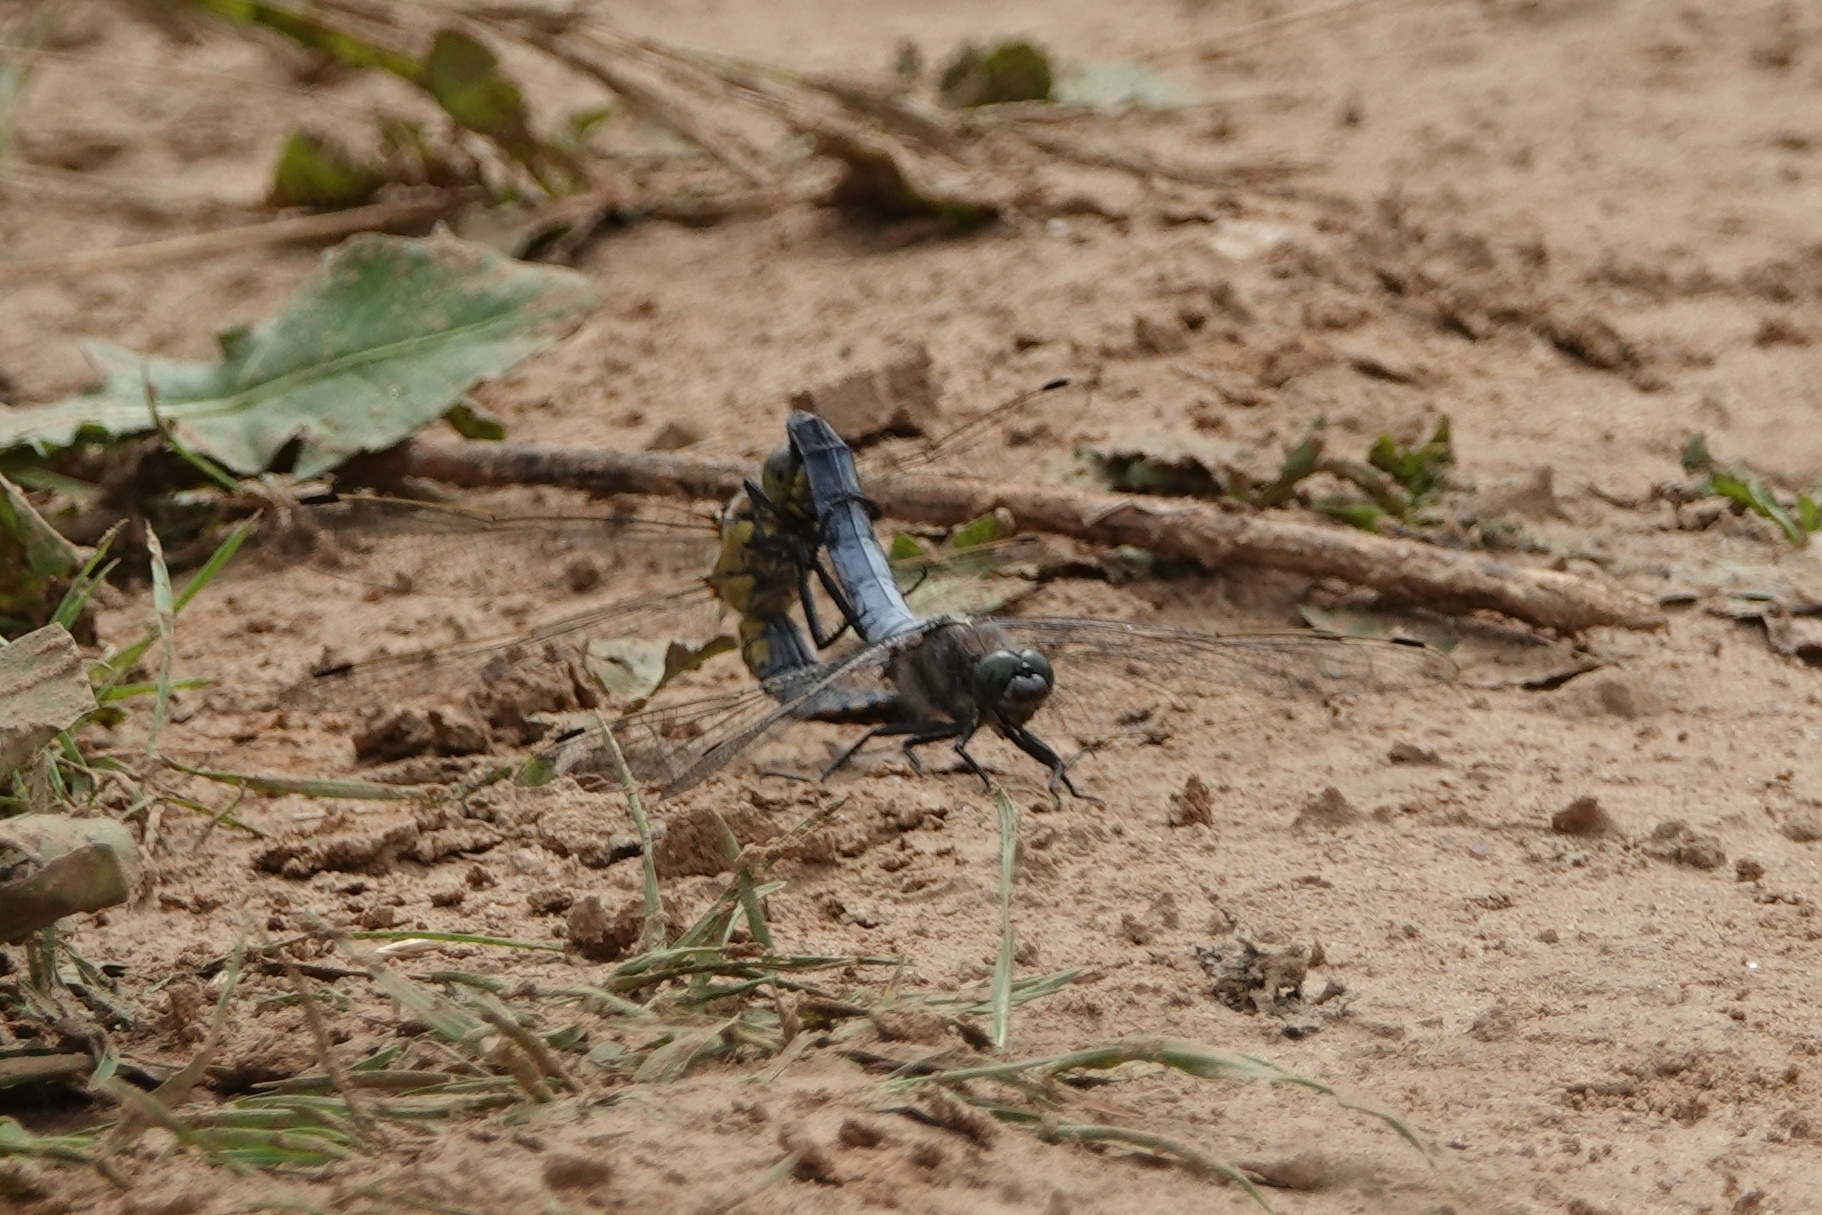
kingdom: Animalia
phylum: Arthropoda
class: Insecta
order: Odonata
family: Libellulidae
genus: Orthetrum
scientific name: Orthetrum cancellatum
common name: Black-tailed skimmer
